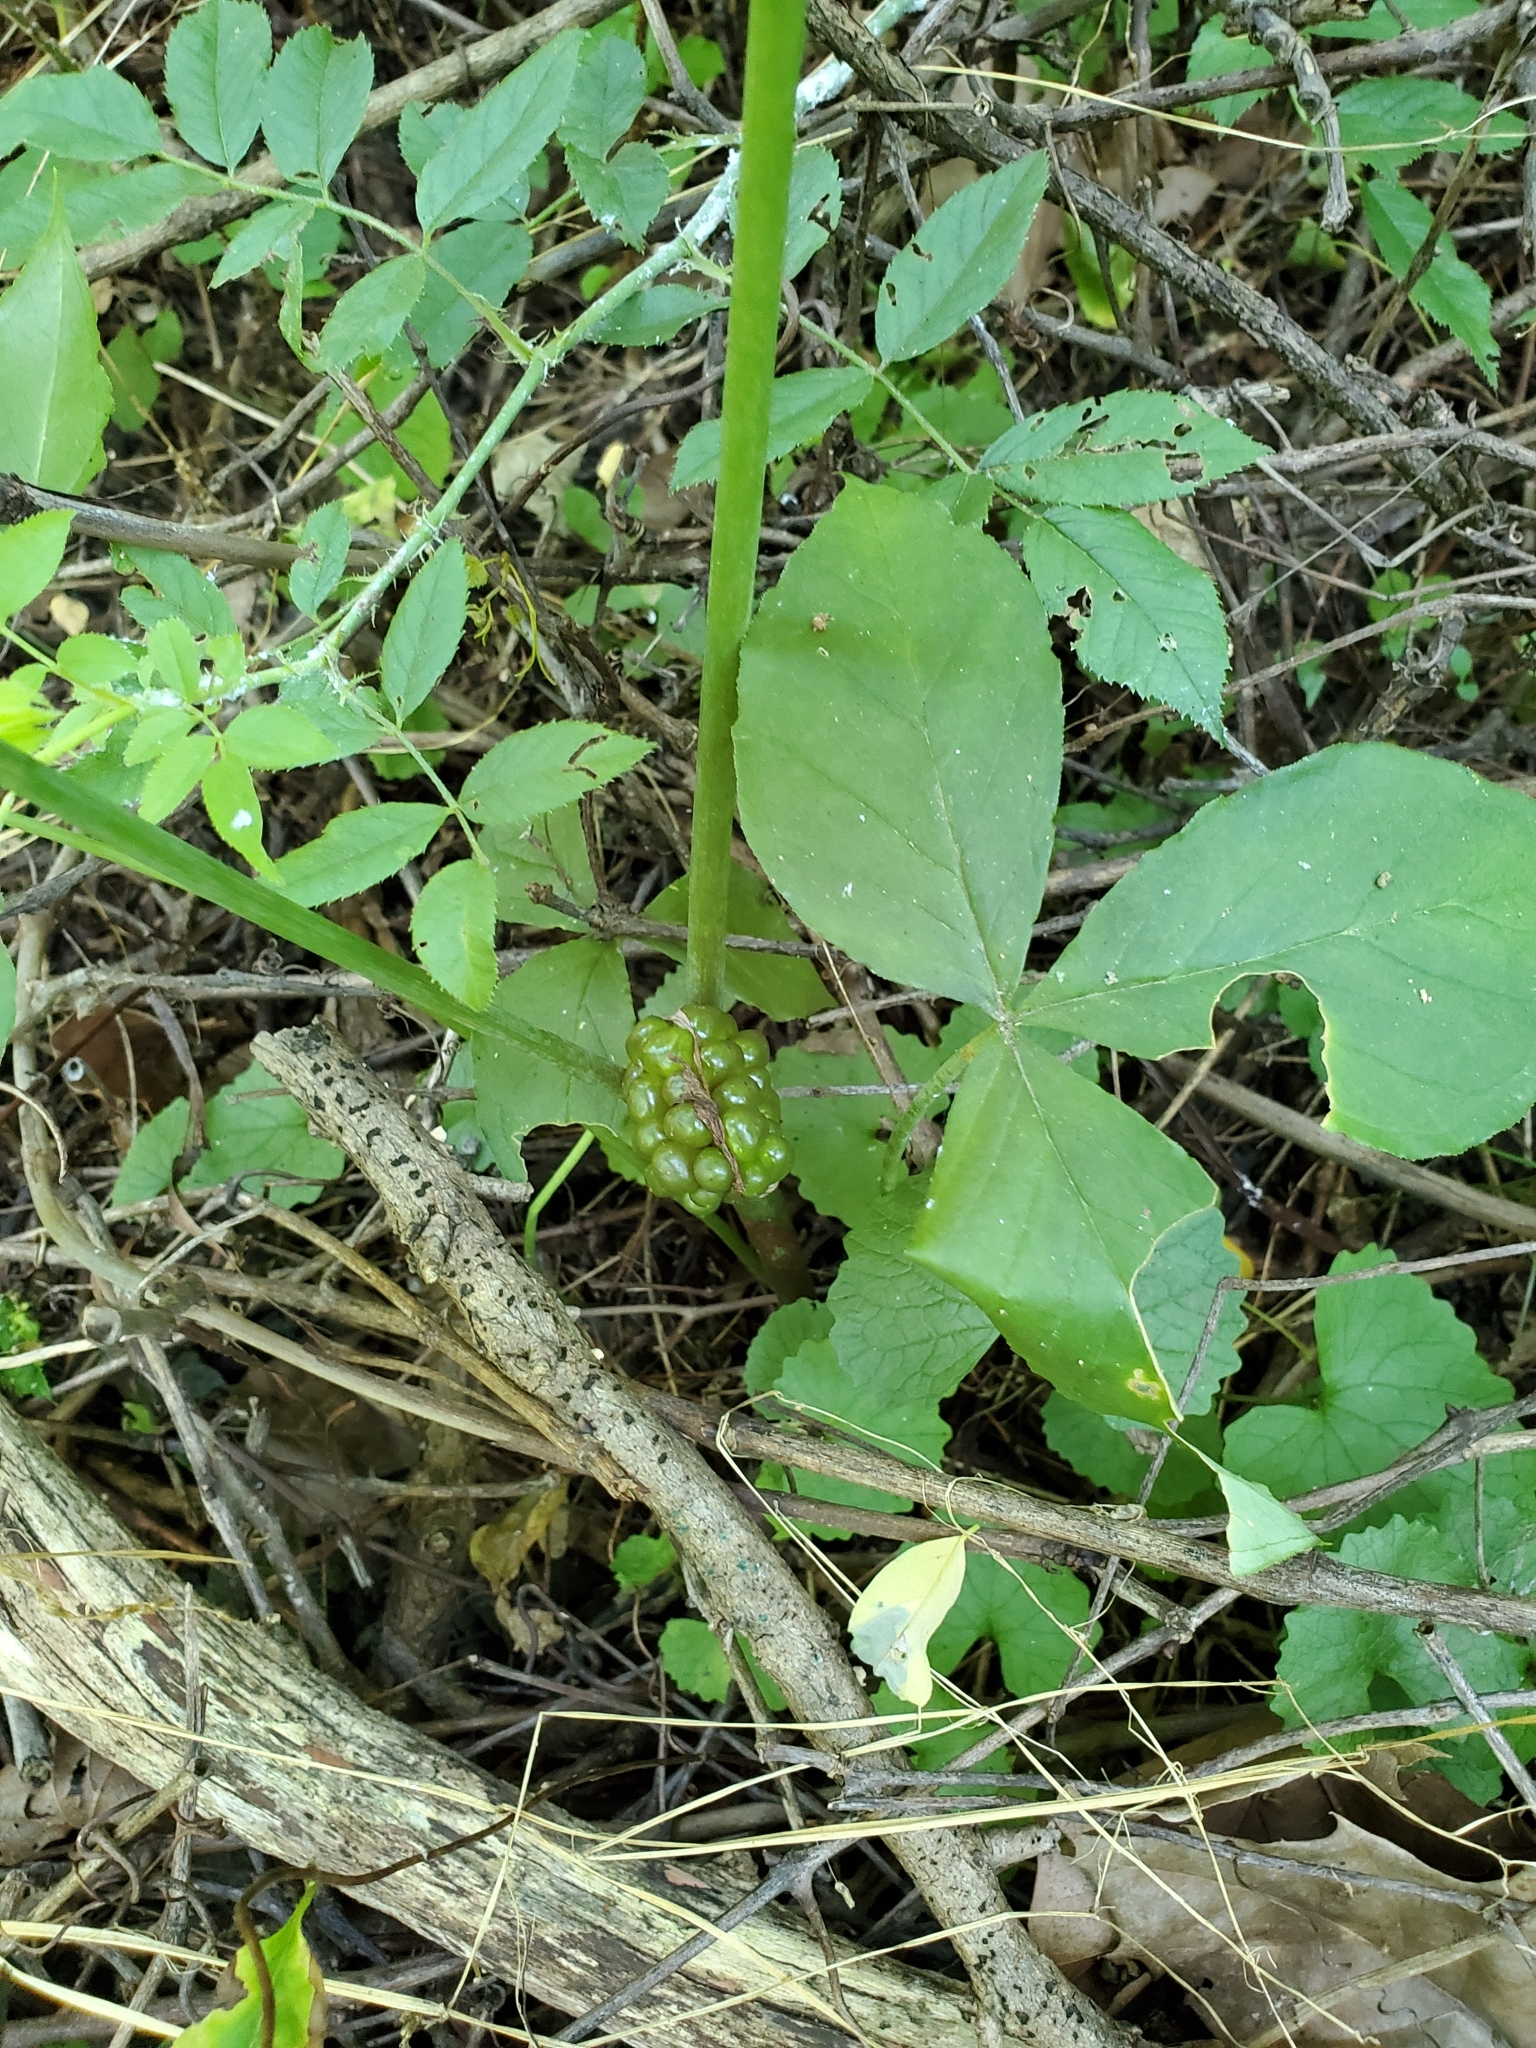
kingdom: Plantae
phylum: Tracheophyta
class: Liliopsida
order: Alismatales
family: Araceae
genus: Arisaema
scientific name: Arisaema triphyllum
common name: Jack-in-the-pulpit
